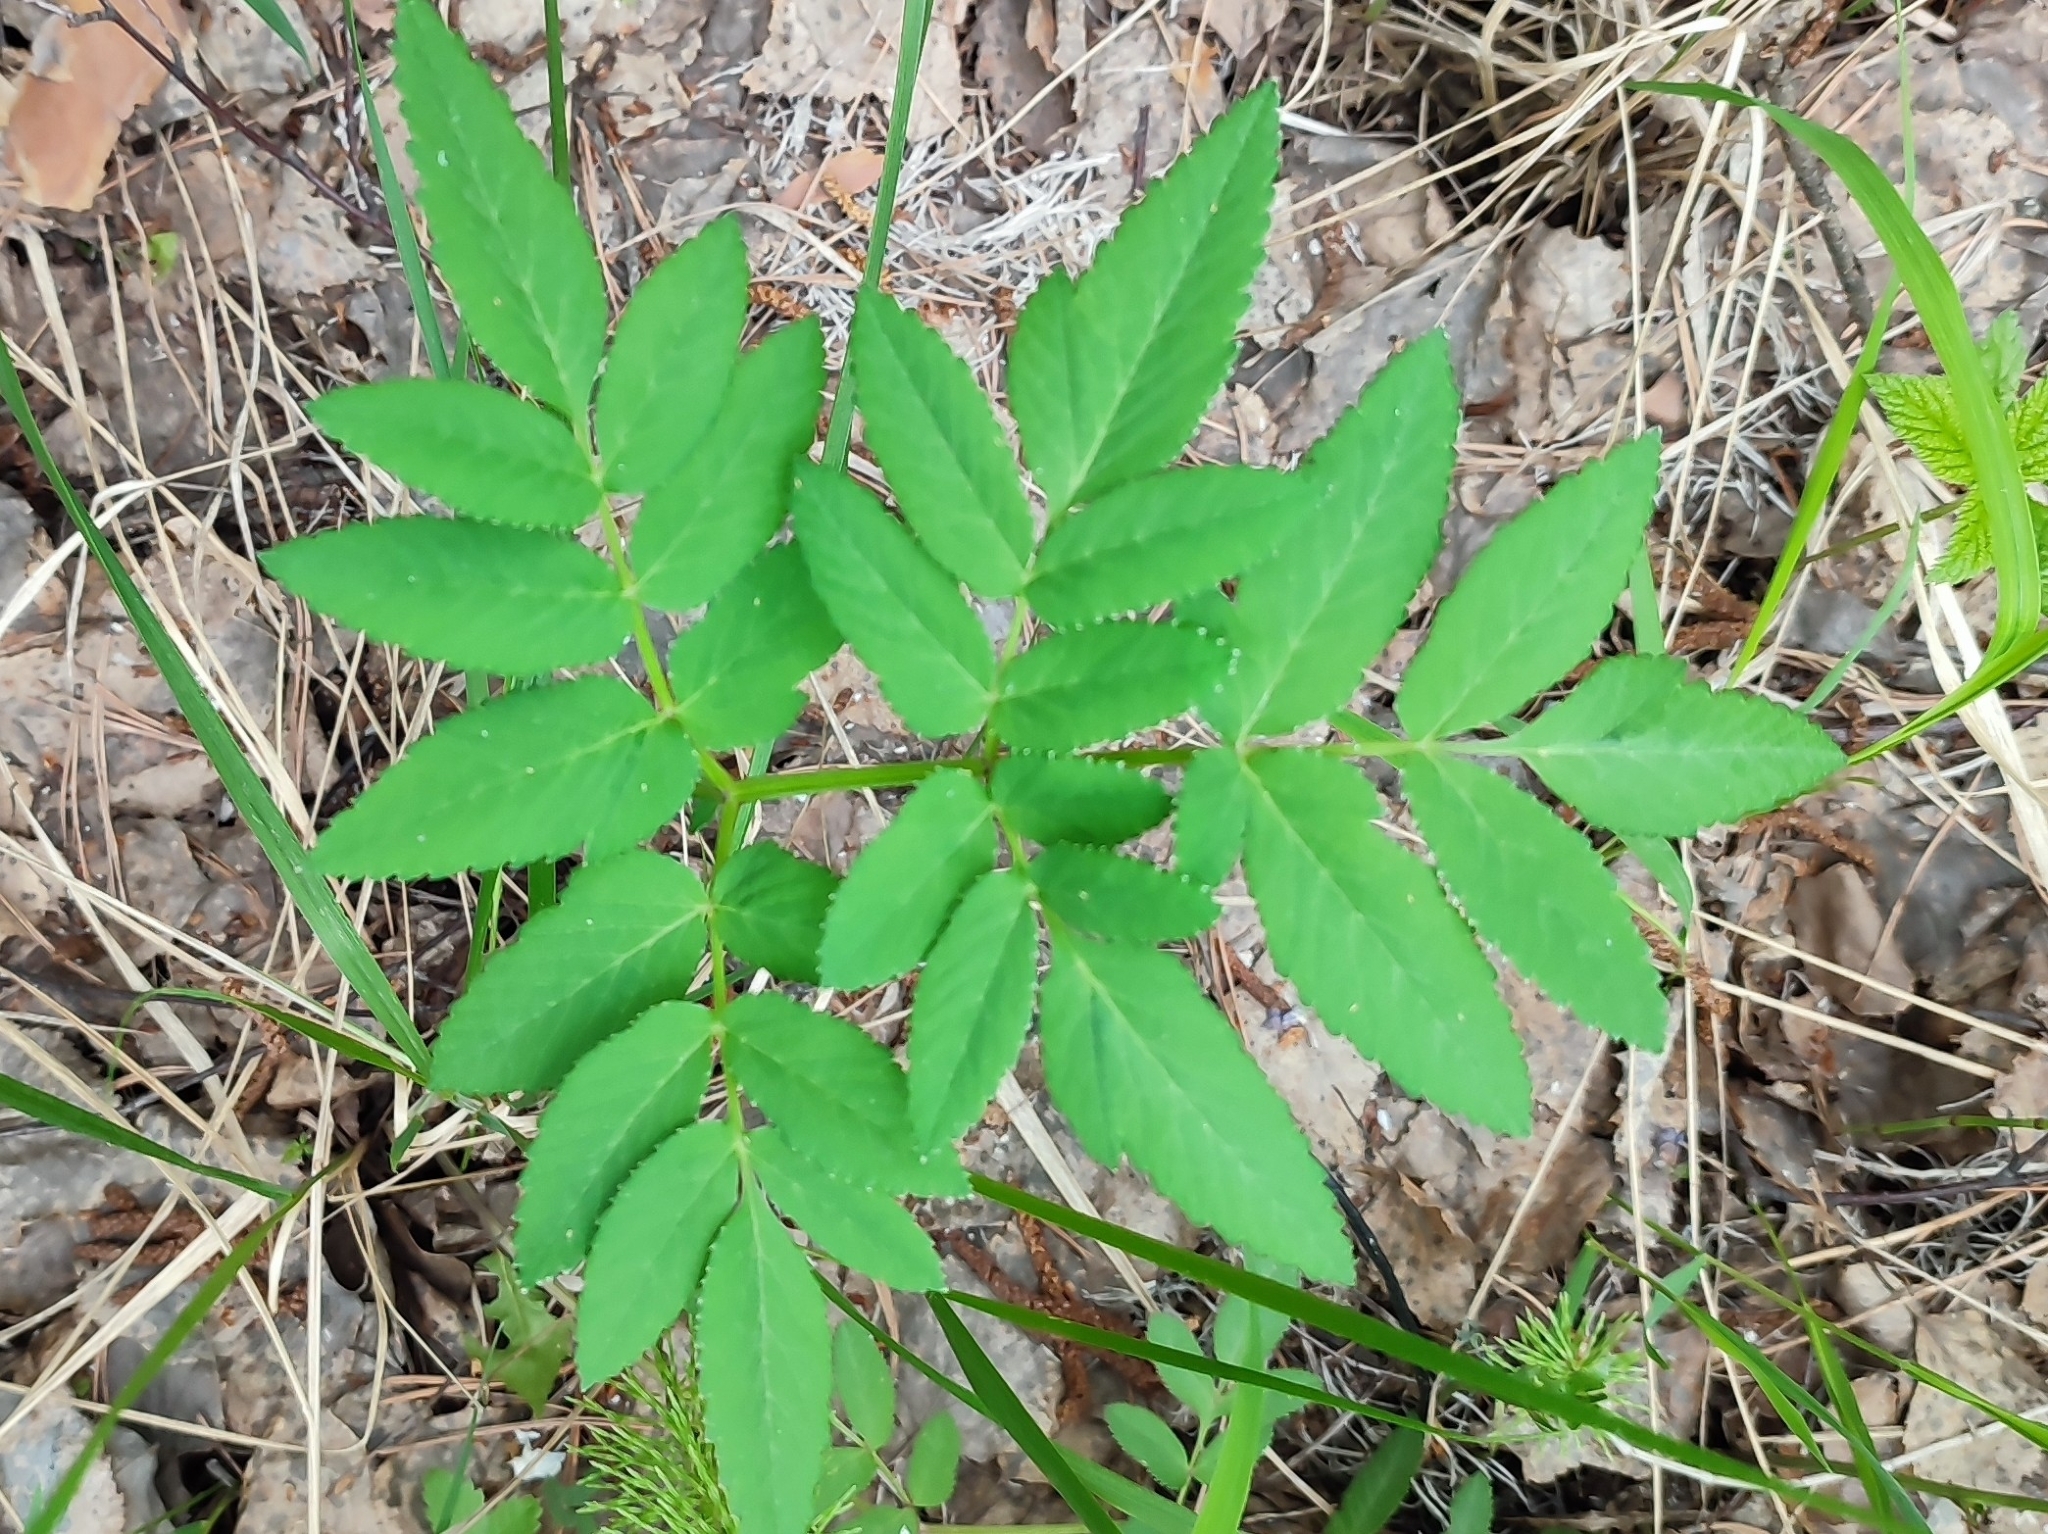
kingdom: Plantae
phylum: Tracheophyta
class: Magnoliopsida
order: Apiales
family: Apiaceae
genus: Angelica
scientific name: Angelica sylvestris
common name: Wild angelica
